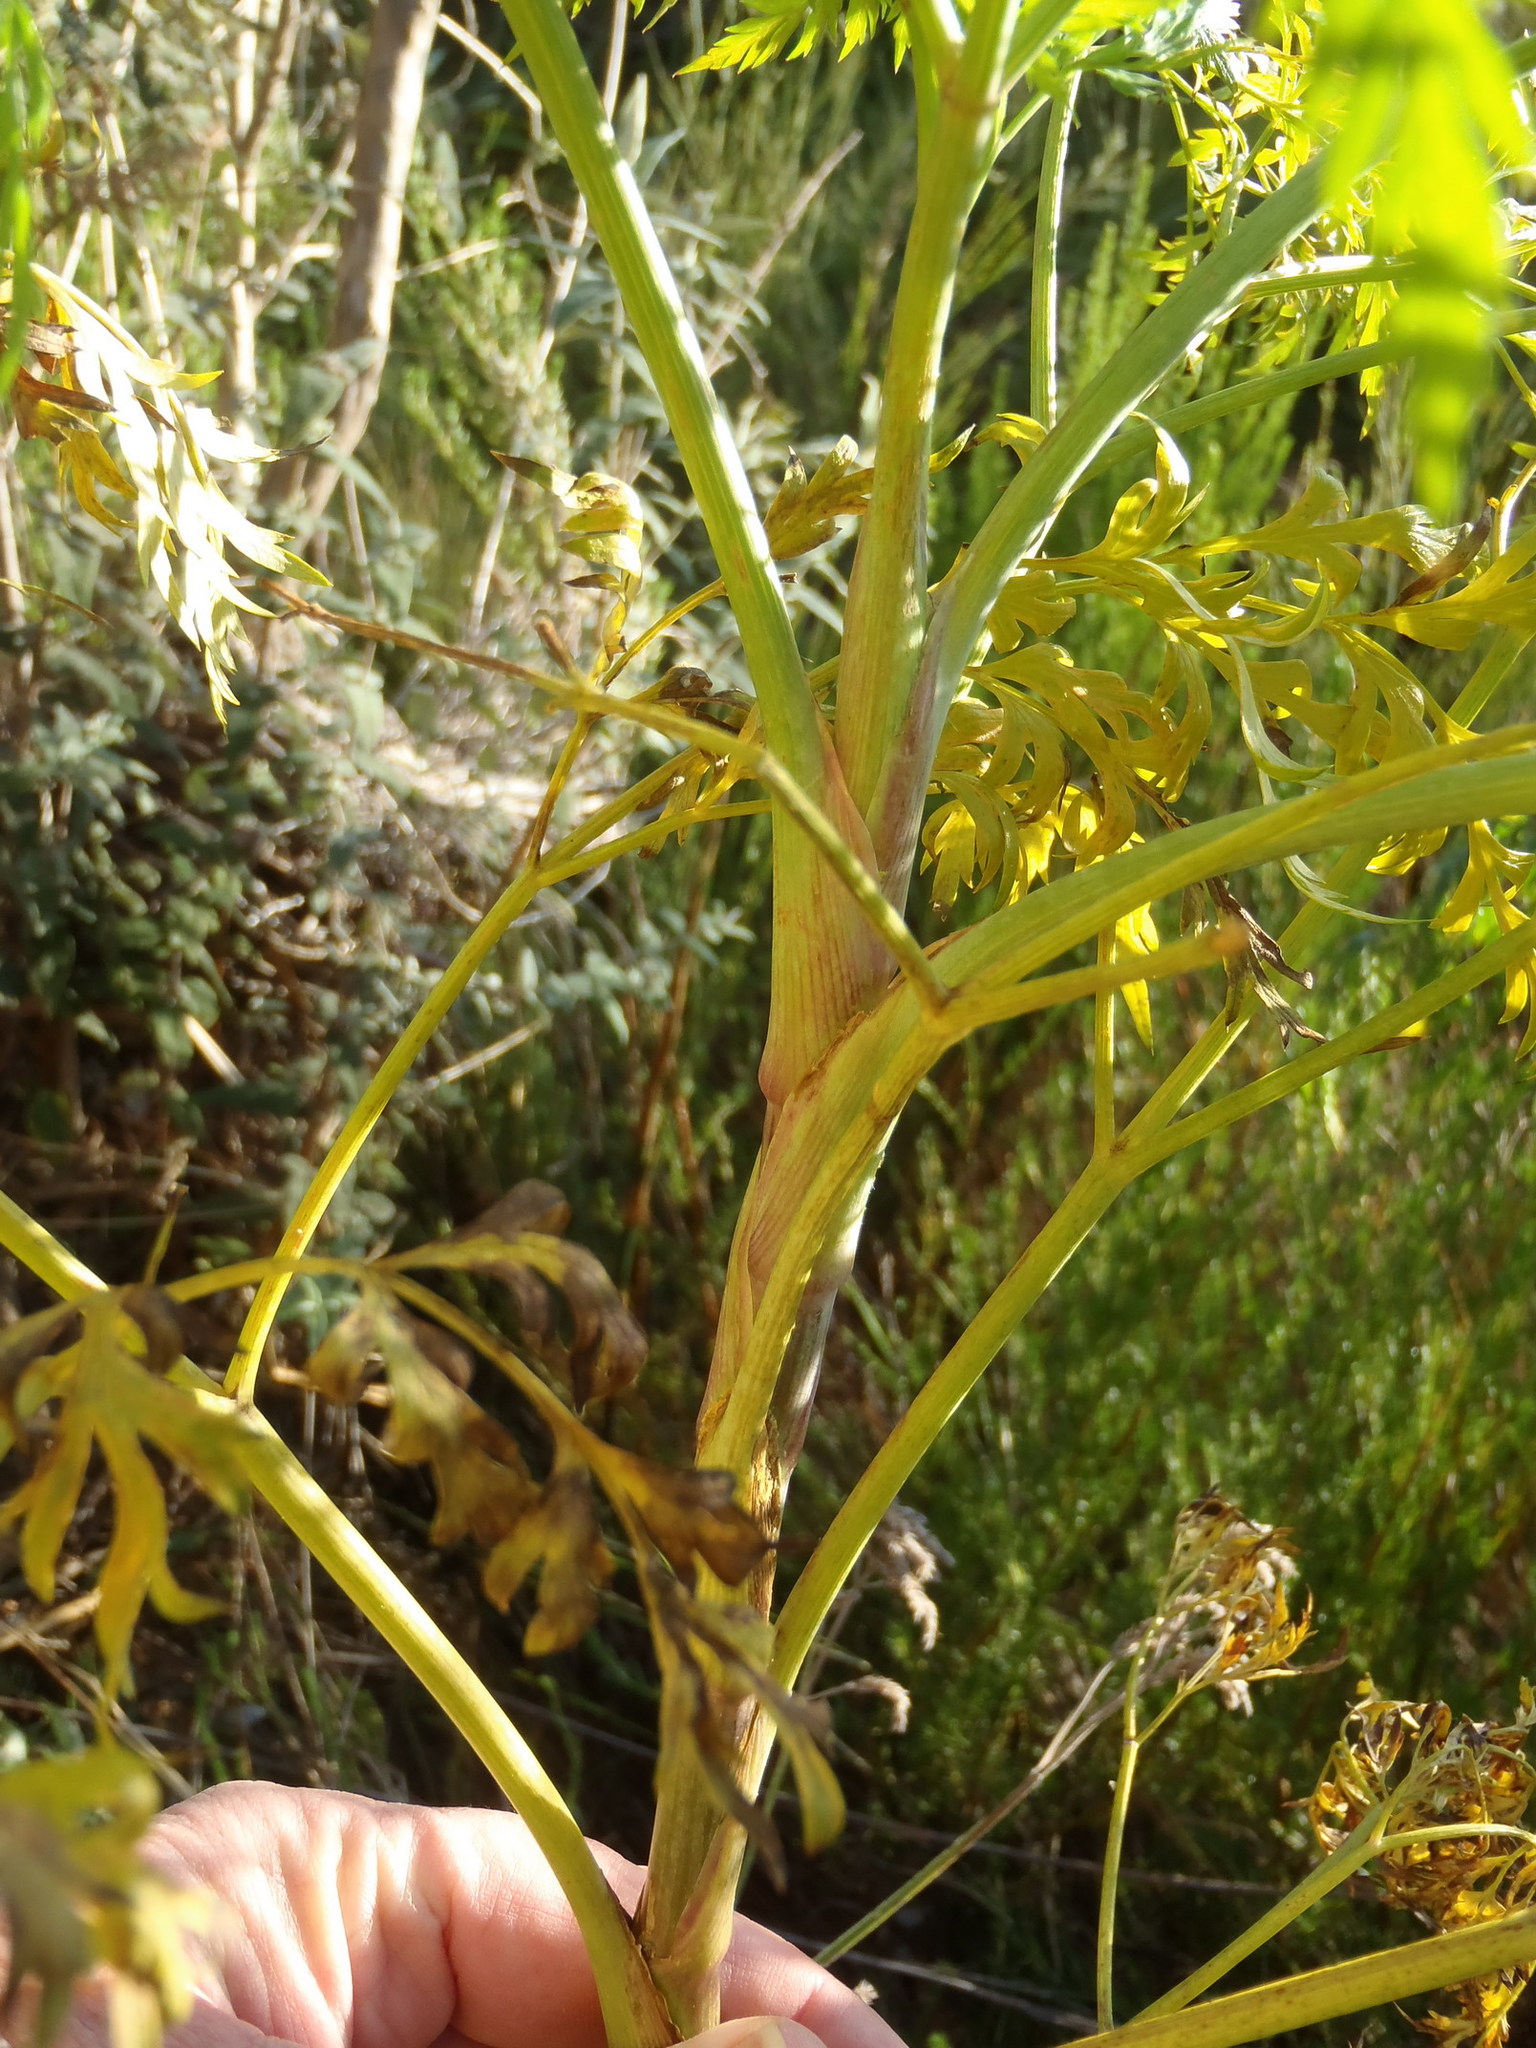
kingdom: Plantae
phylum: Tracheophyta
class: Magnoliopsida
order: Apiales
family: Apiaceae
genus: Notobubon
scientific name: Notobubon gummiferum
